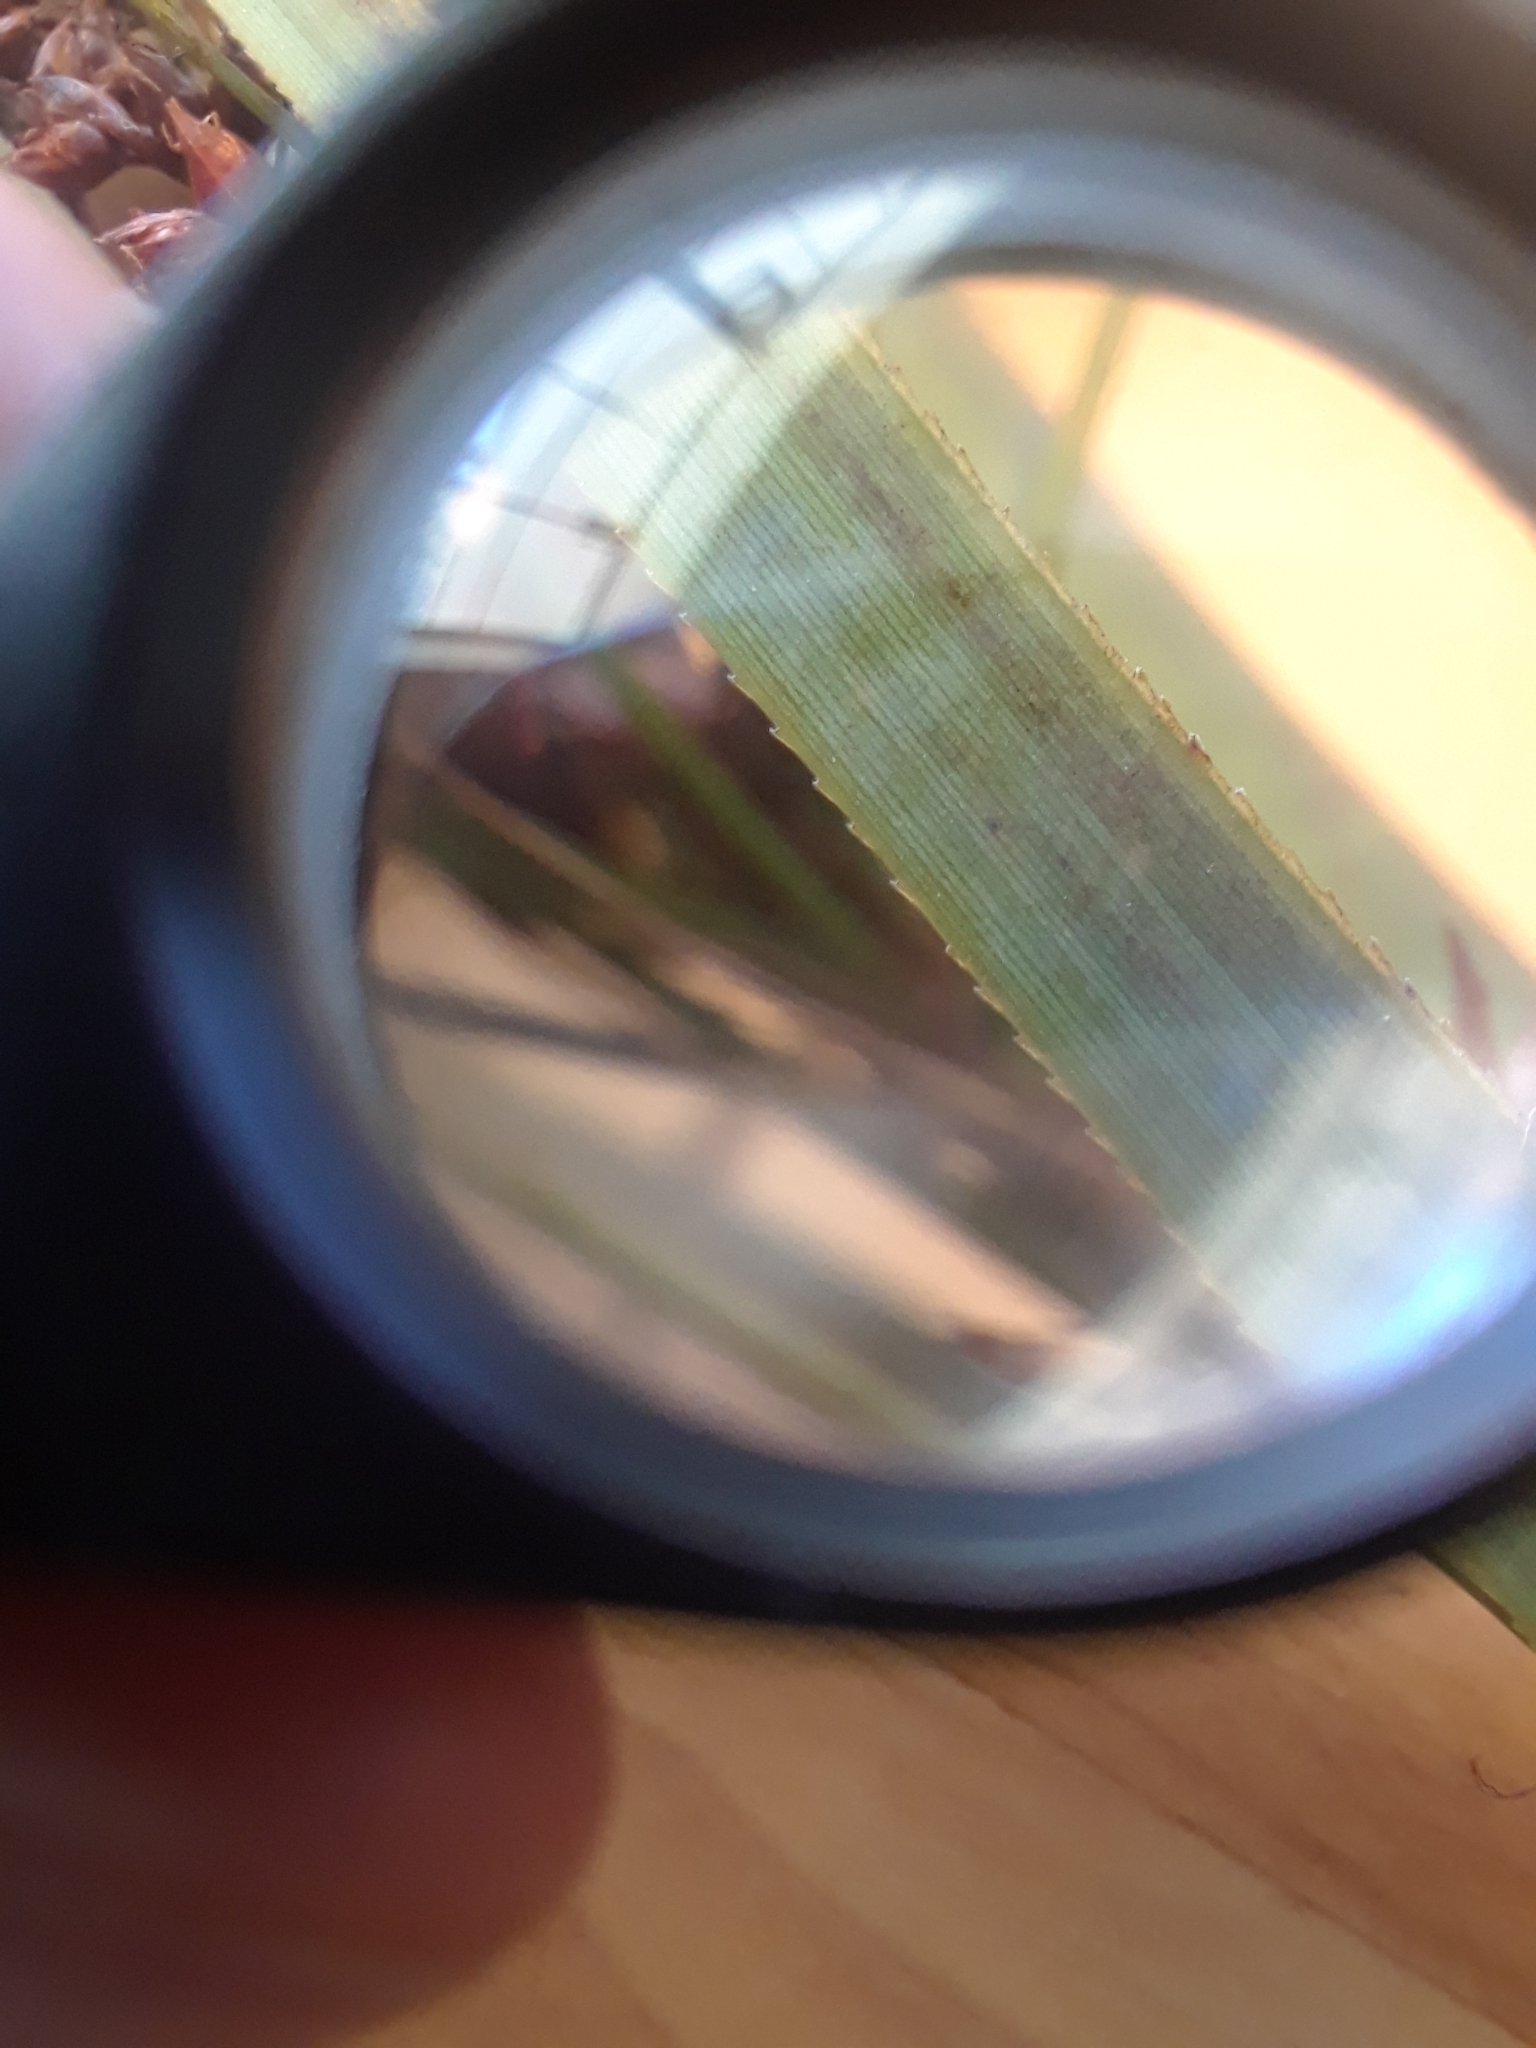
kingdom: Plantae
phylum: Tracheophyta
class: Liliopsida
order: Poales
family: Cyperaceae
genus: Cladium
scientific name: Cladium mariscus
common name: Great fen-sedge
